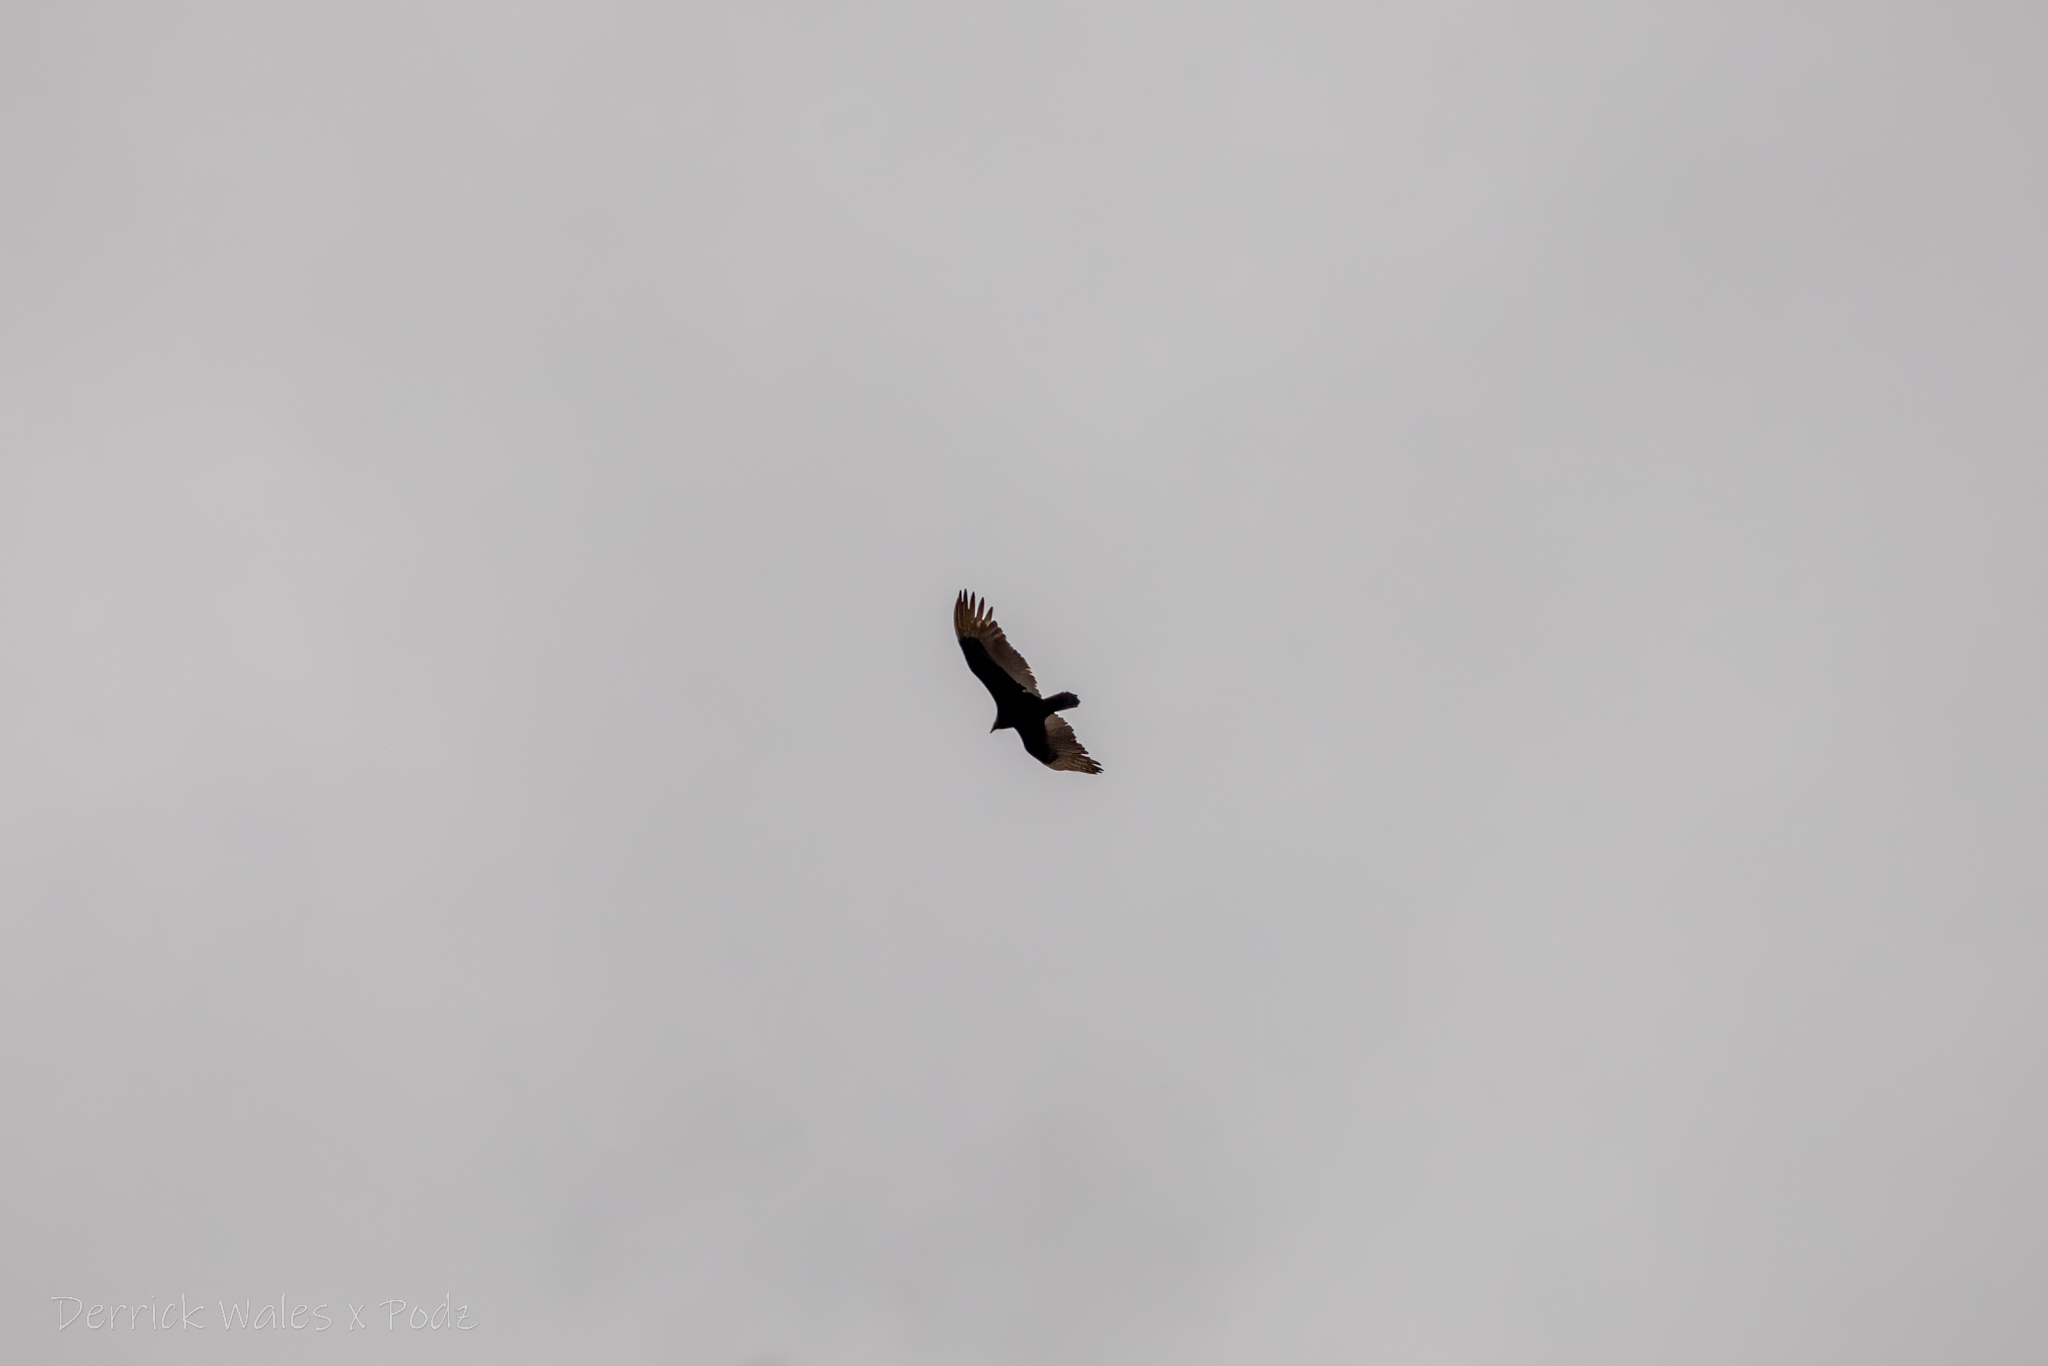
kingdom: Animalia
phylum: Chordata
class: Aves
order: Accipitriformes
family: Cathartidae
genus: Cathartes
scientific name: Cathartes aura
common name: Turkey vulture
